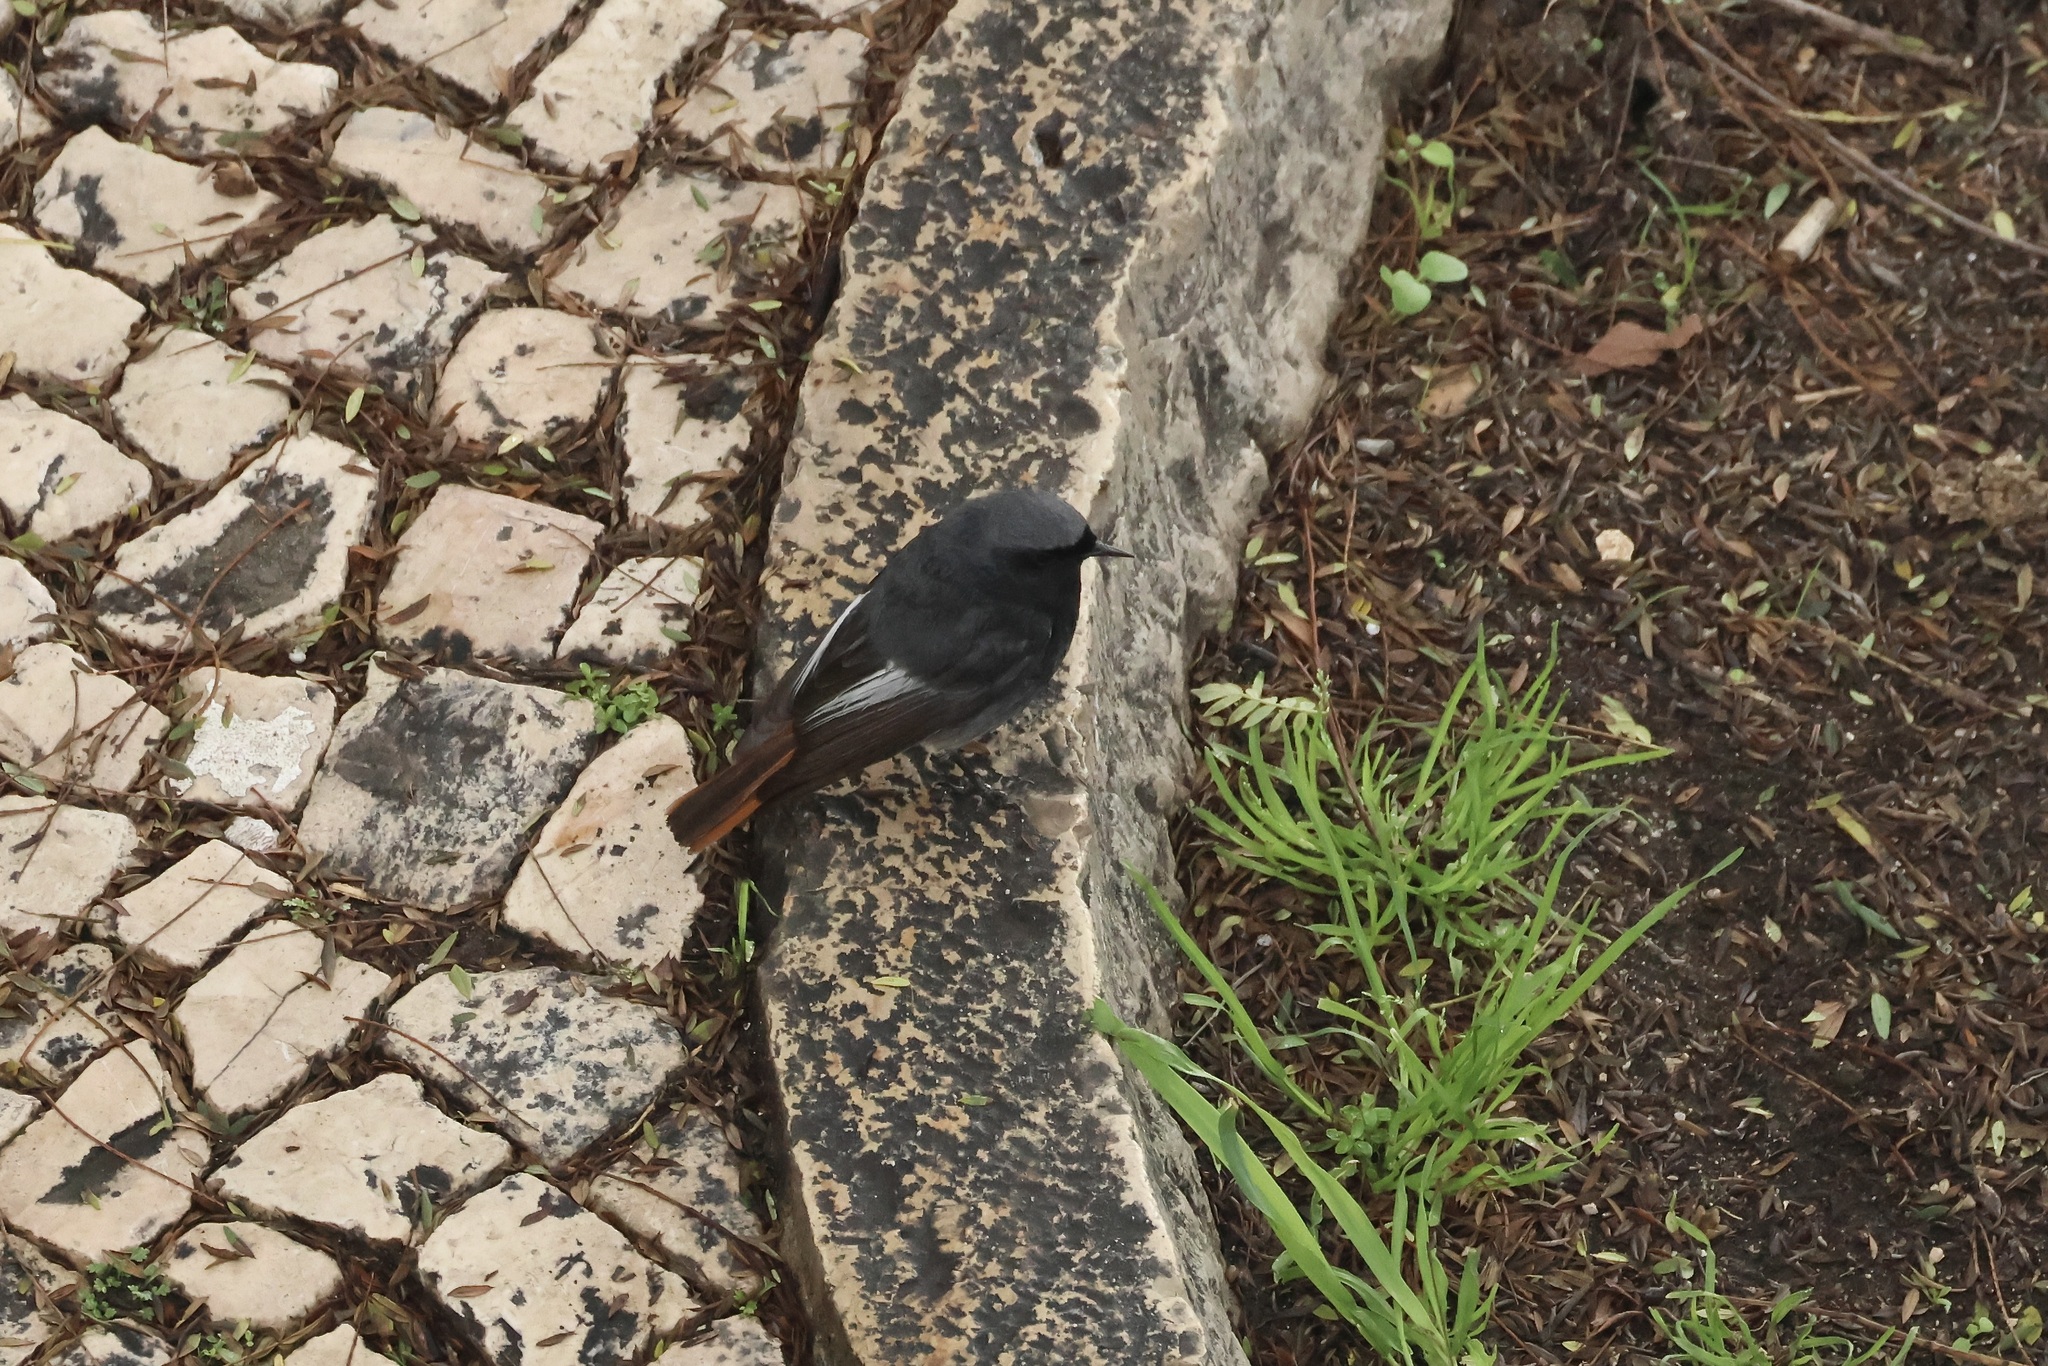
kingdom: Animalia
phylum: Chordata
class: Aves
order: Passeriformes
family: Muscicapidae
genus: Phoenicurus
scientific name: Phoenicurus ochruros
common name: Black redstart
